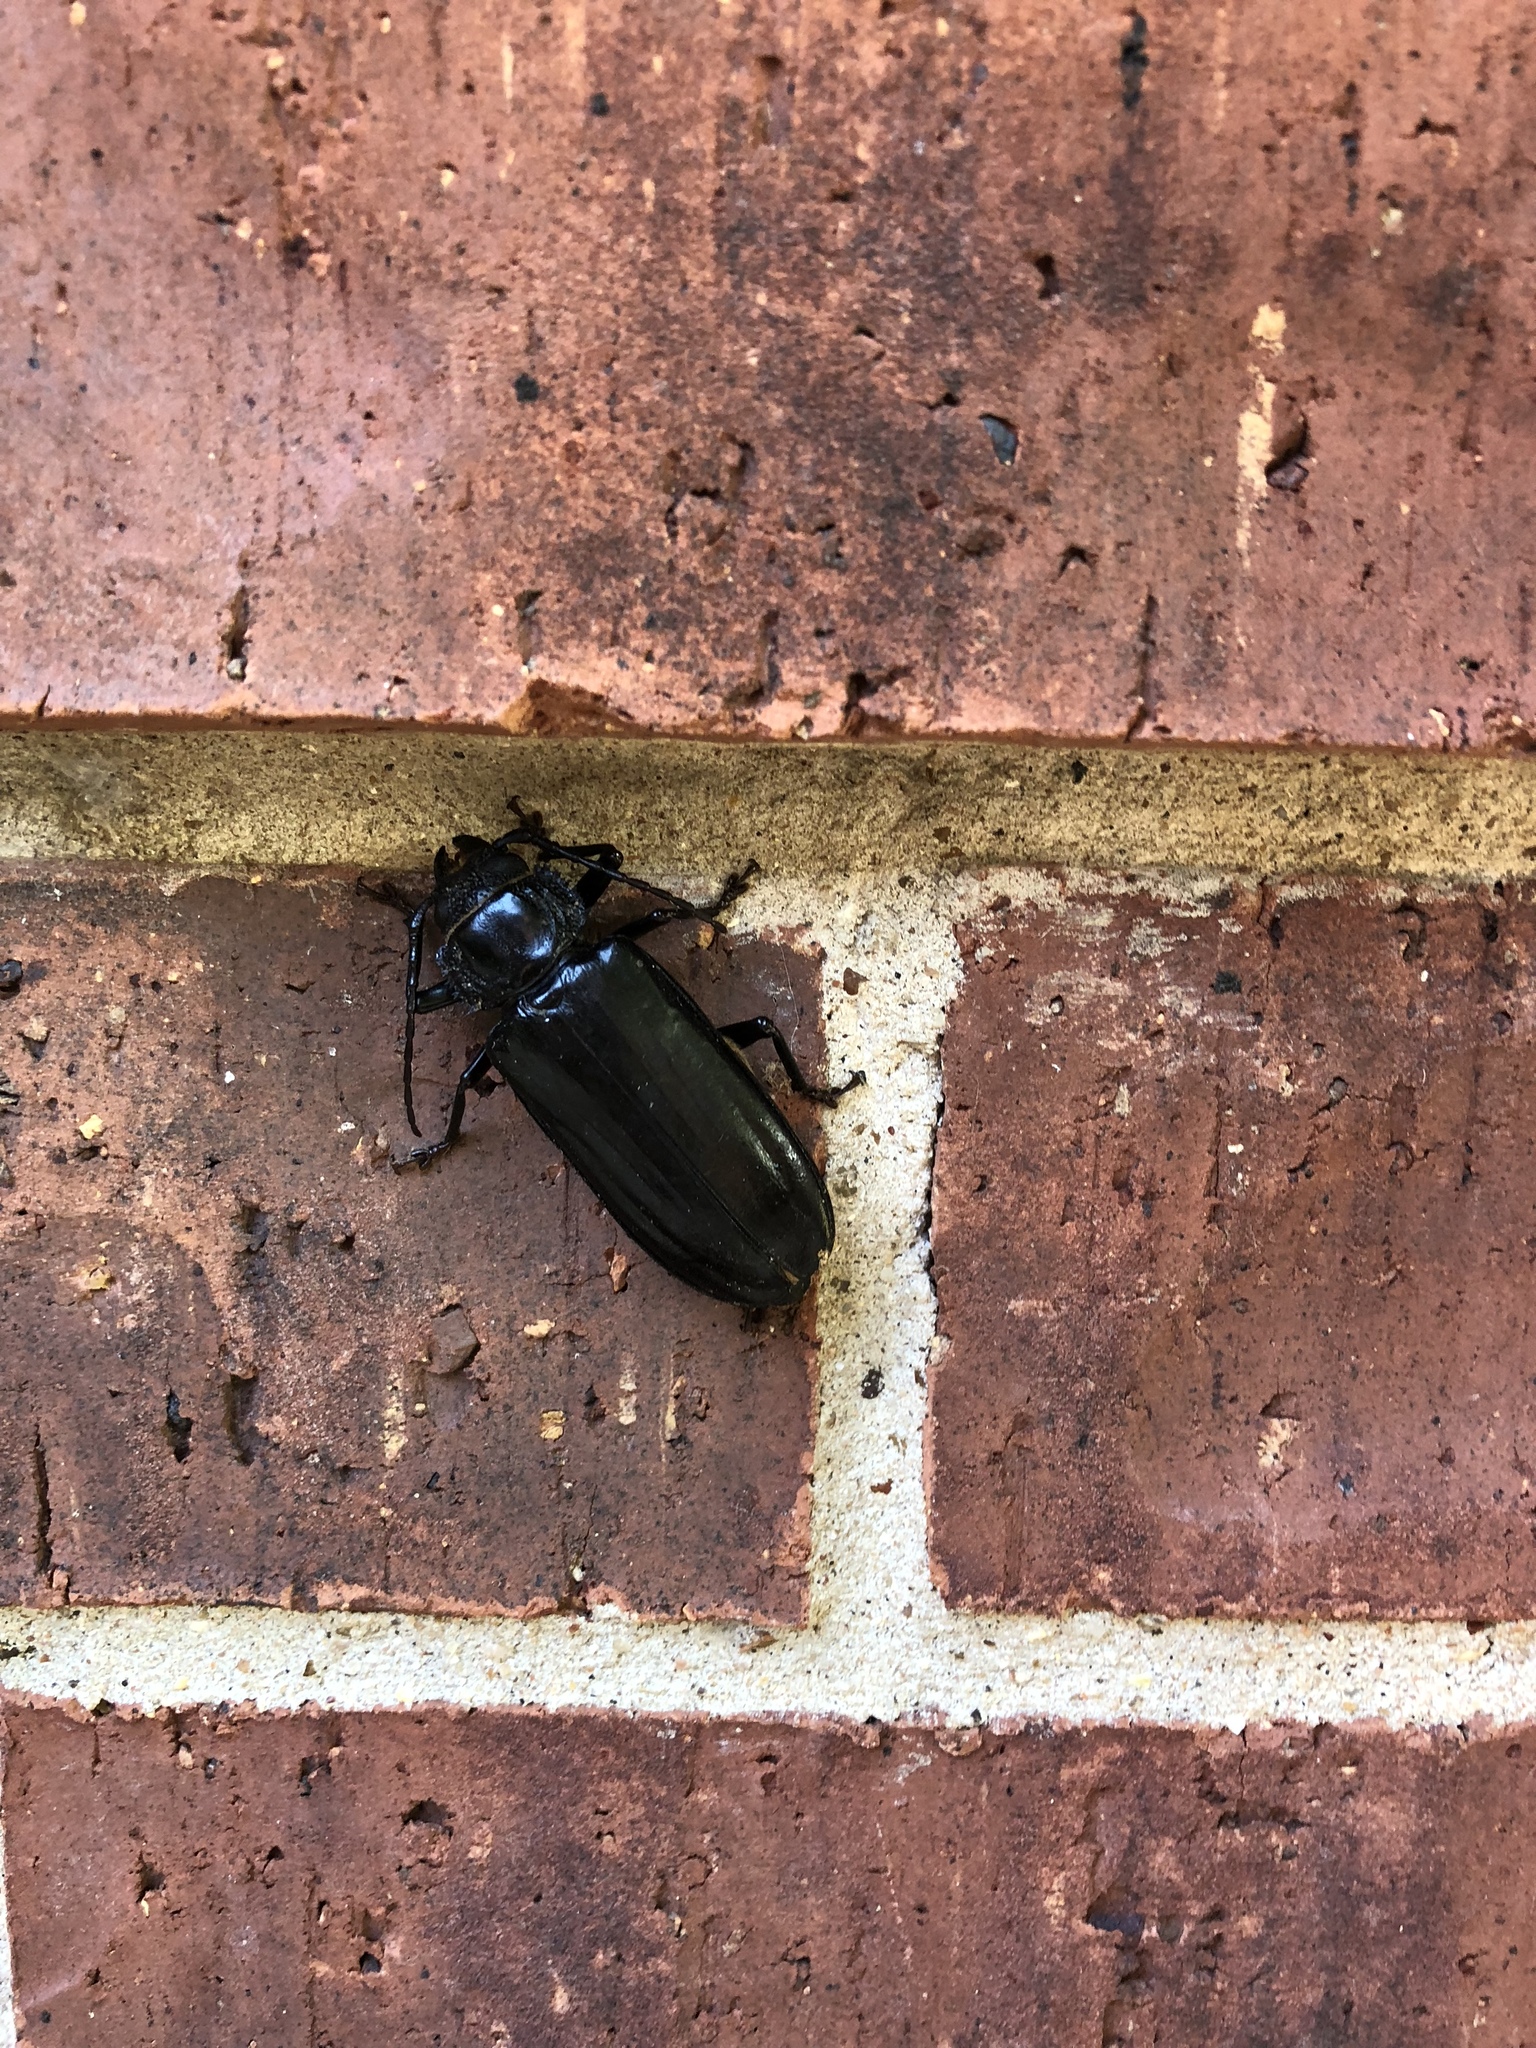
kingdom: Animalia
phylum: Arthropoda
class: Insecta
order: Coleoptera
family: Cerambycidae
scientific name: Cerambycidae
